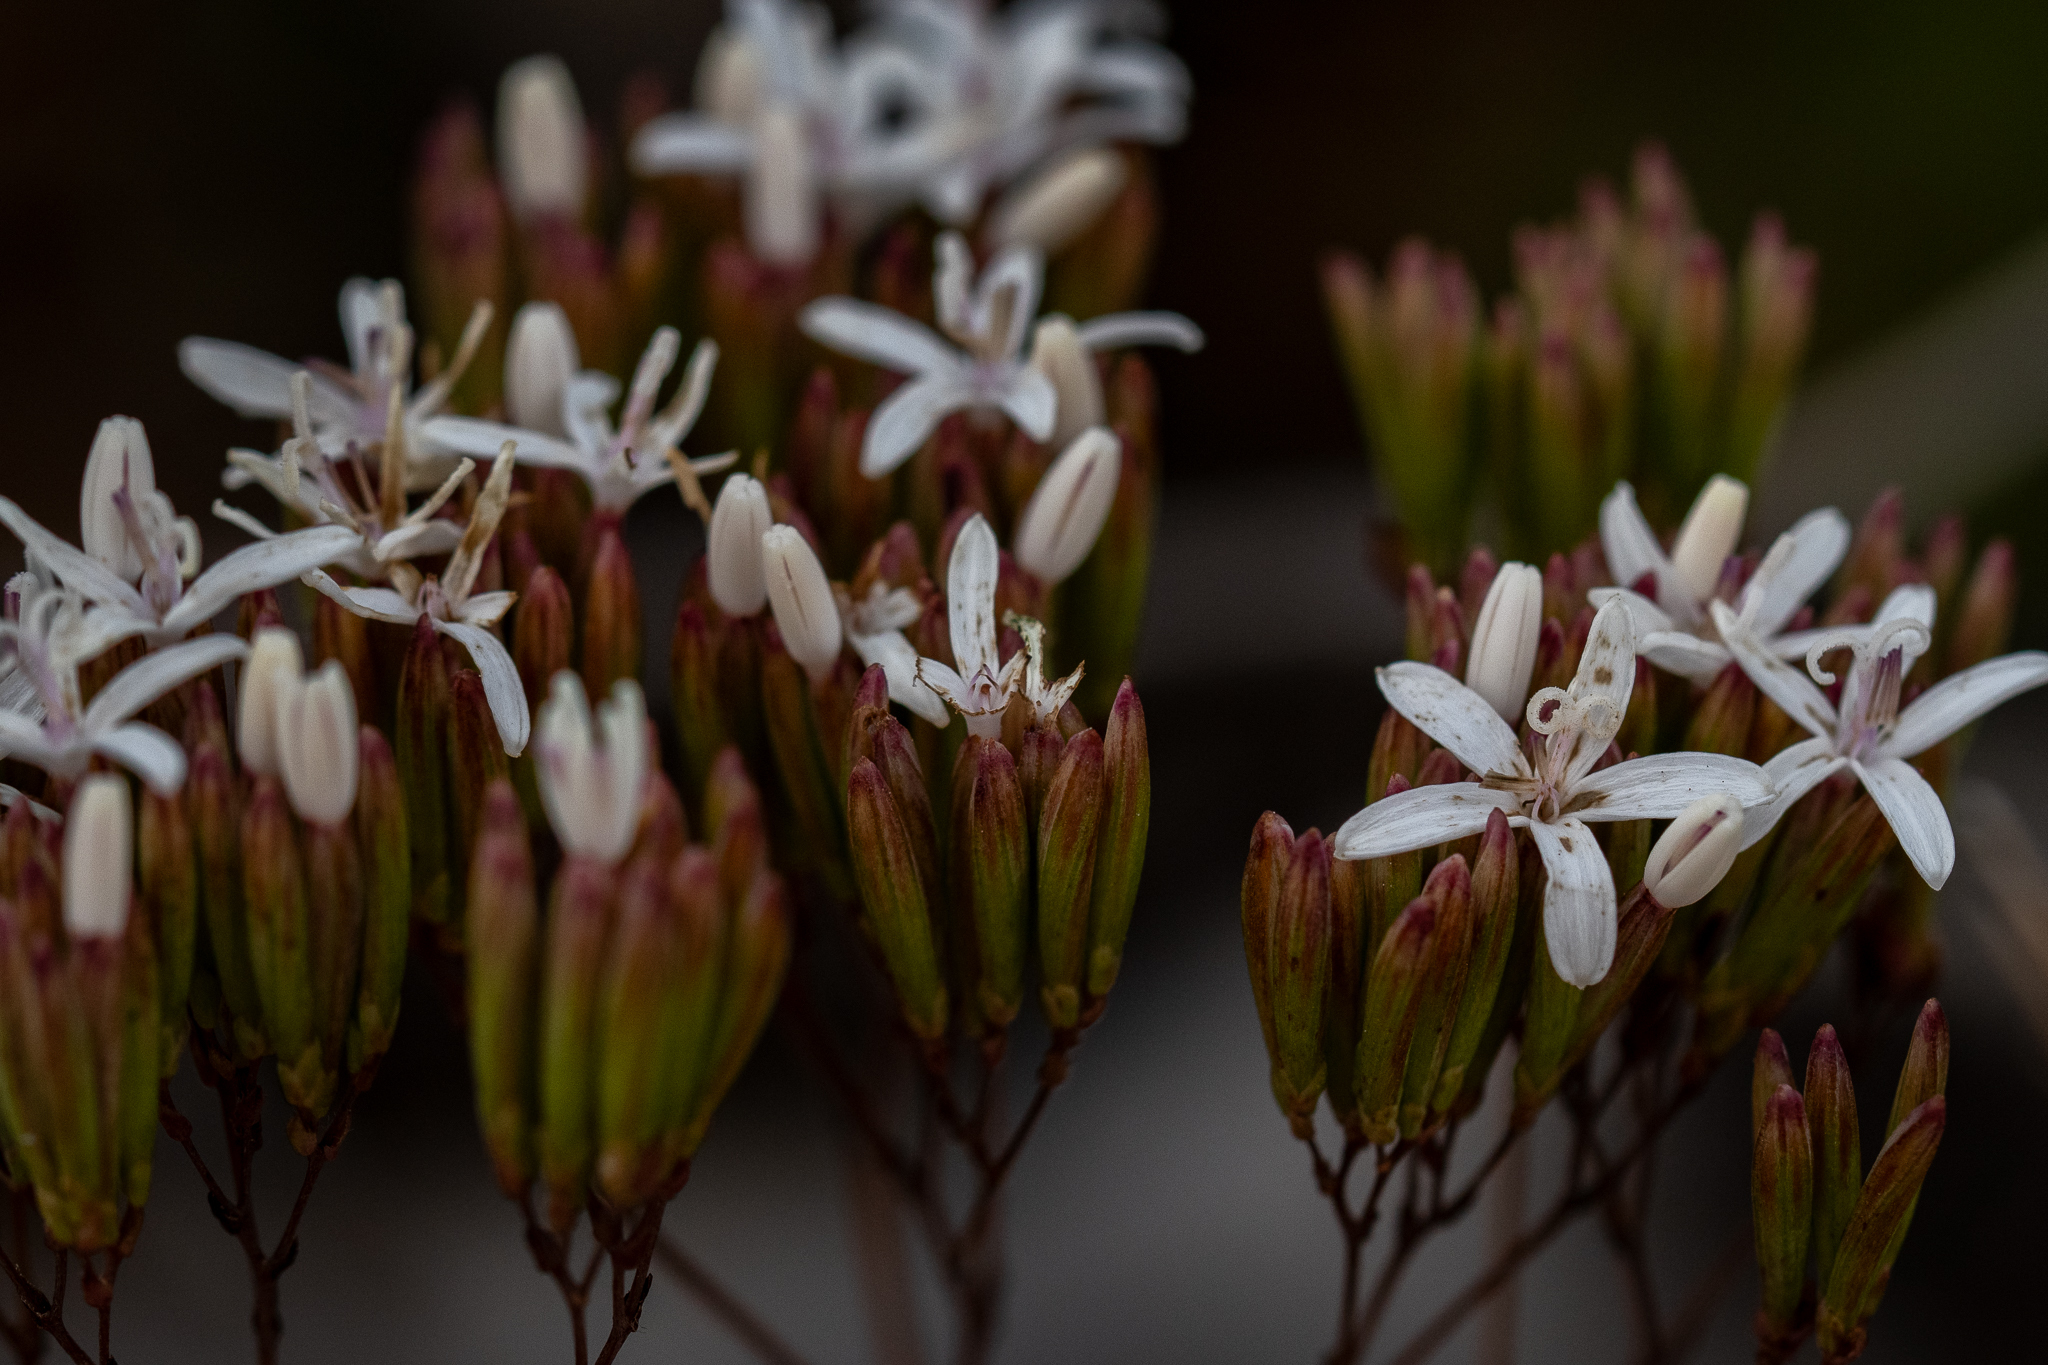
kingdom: Plantae
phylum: Tracheophyta
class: Magnoliopsida
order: Asterales
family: Asteraceae
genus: Corymbium
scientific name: Corymbium glabrum
